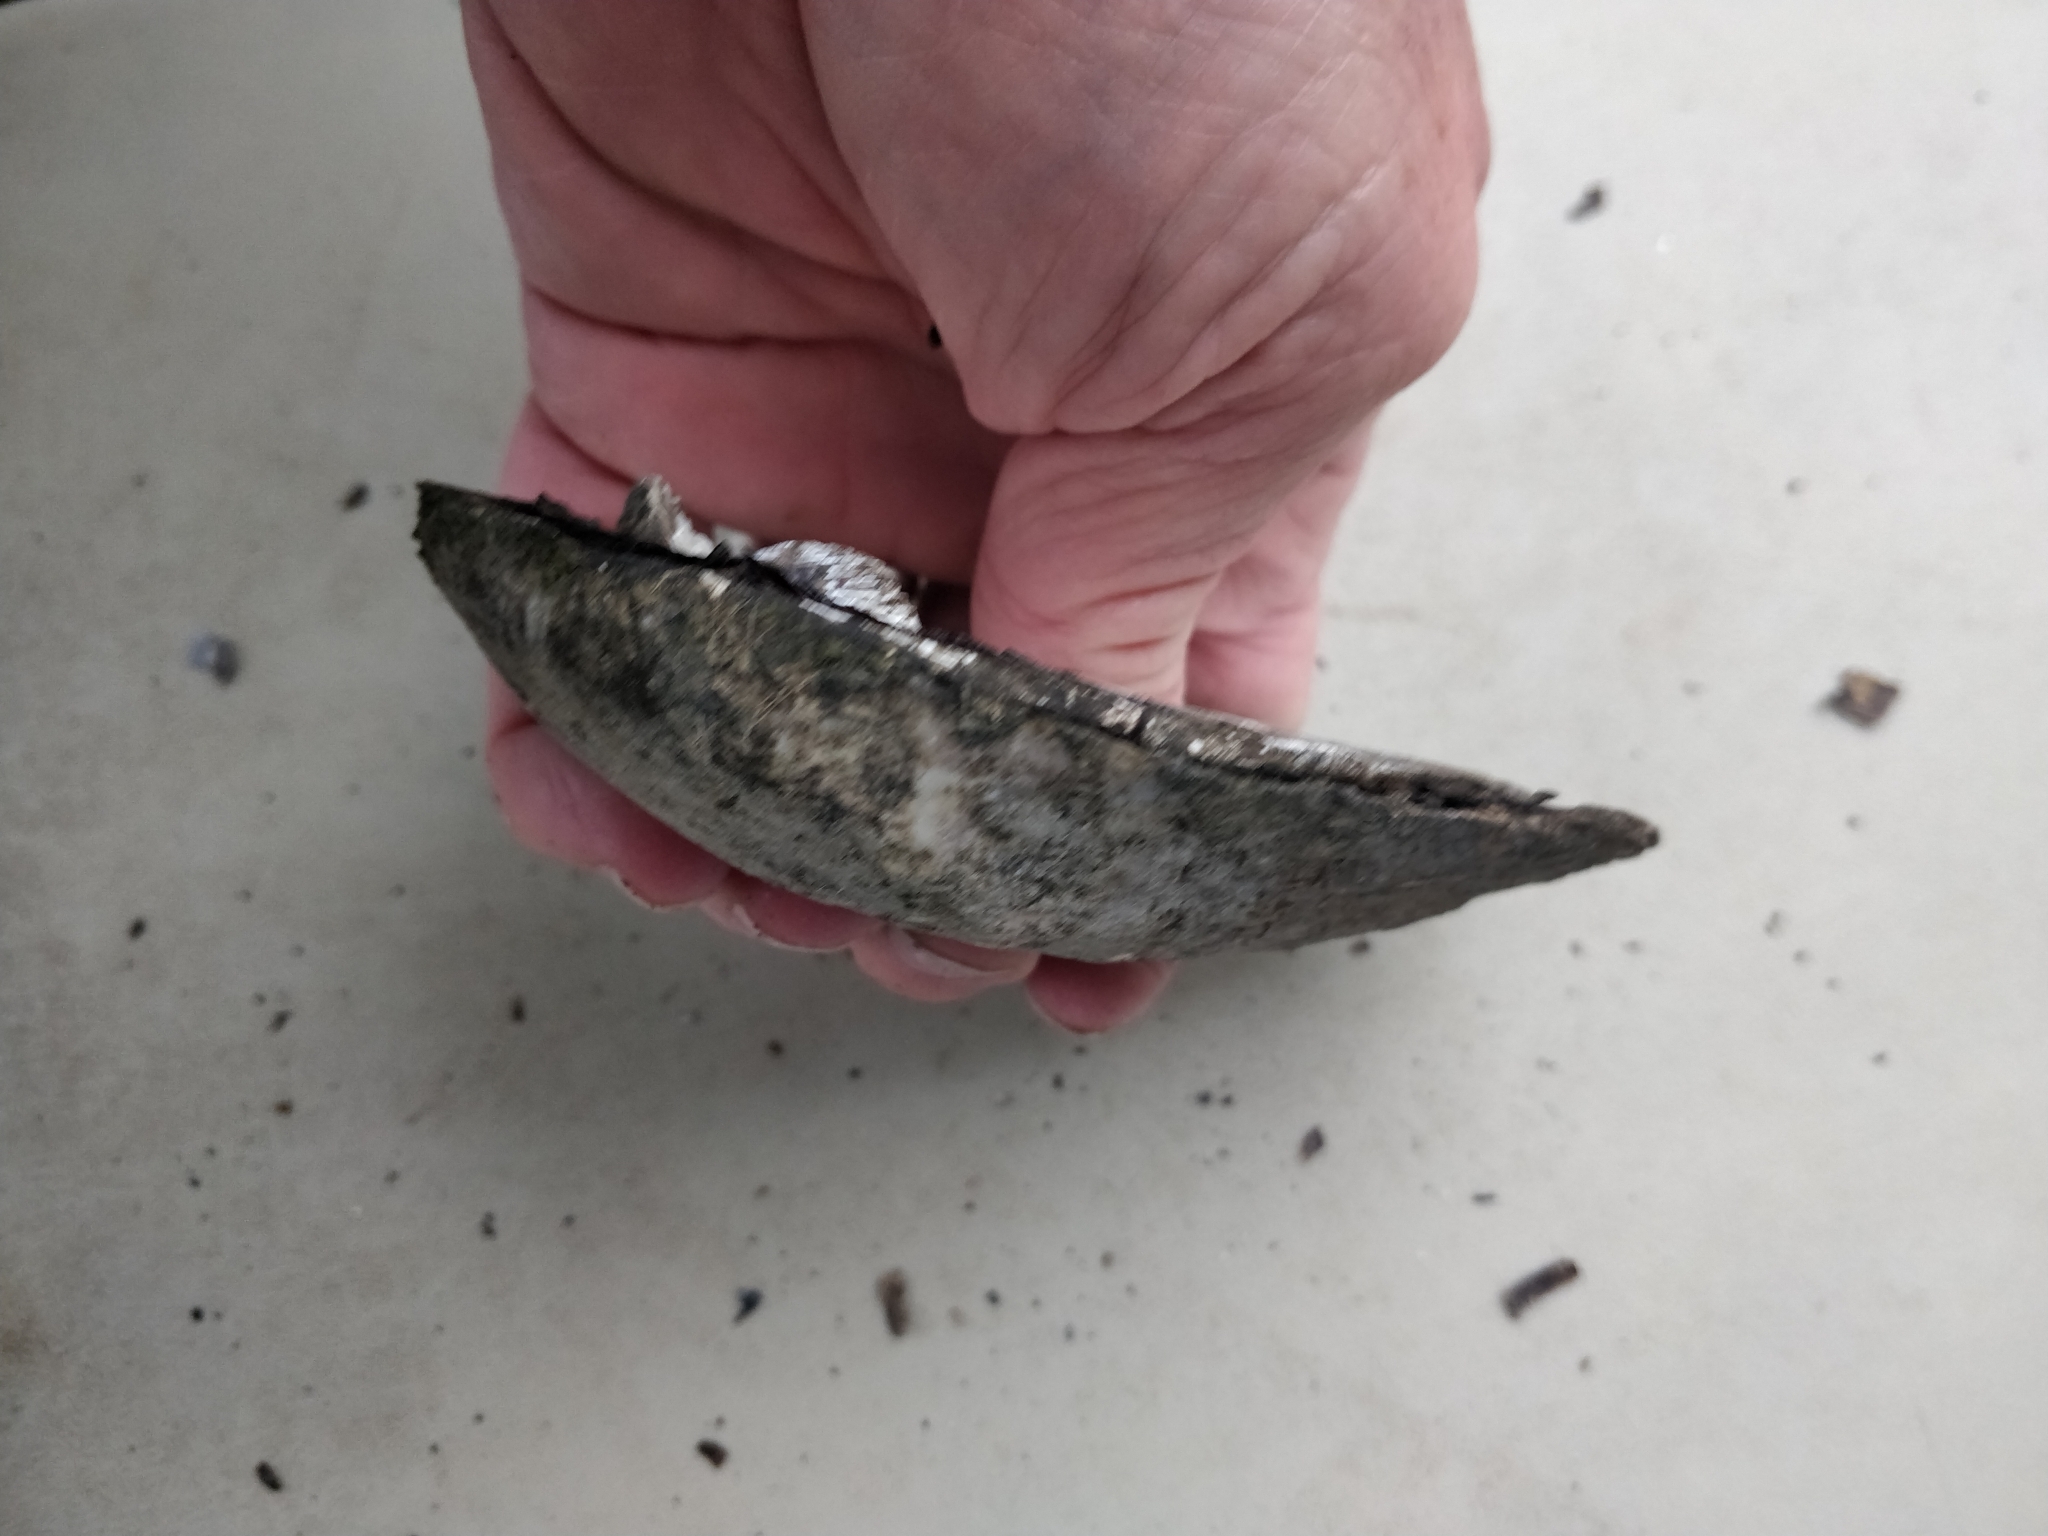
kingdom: Animalia
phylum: Mollusca
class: Bivalvia
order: Unionida
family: Unionidae
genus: Amblema
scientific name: Amblema plicata
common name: Threeridge
